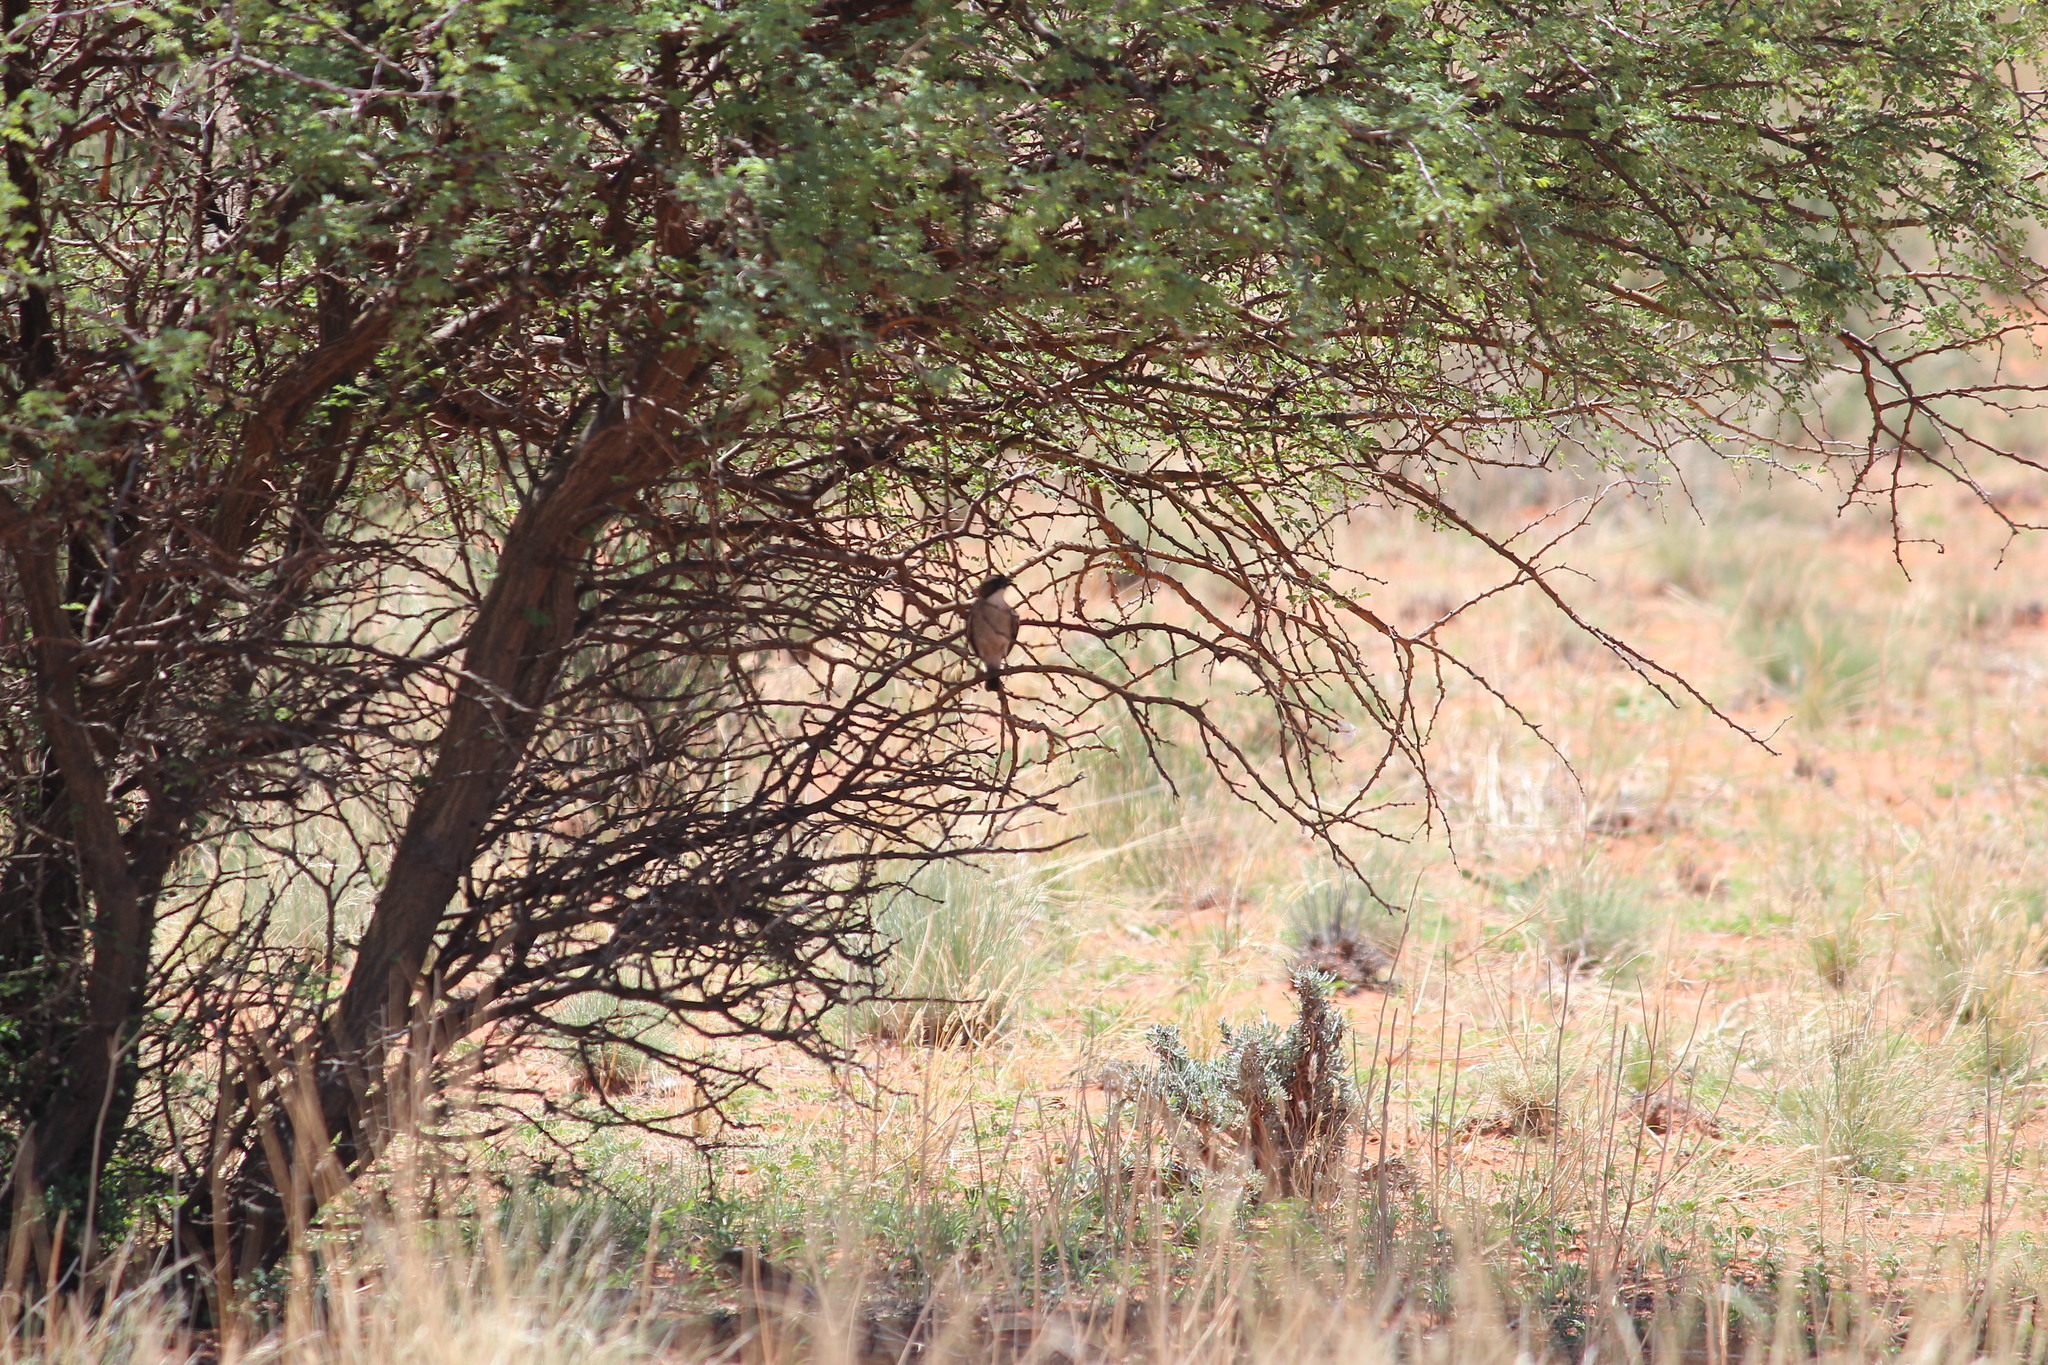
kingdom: Animalia
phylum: Chordata
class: Aves
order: Passeriformes
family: Passeridae
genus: Plocepasser
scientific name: Plocepasser mahali
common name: White-browed sparrow-weaver
